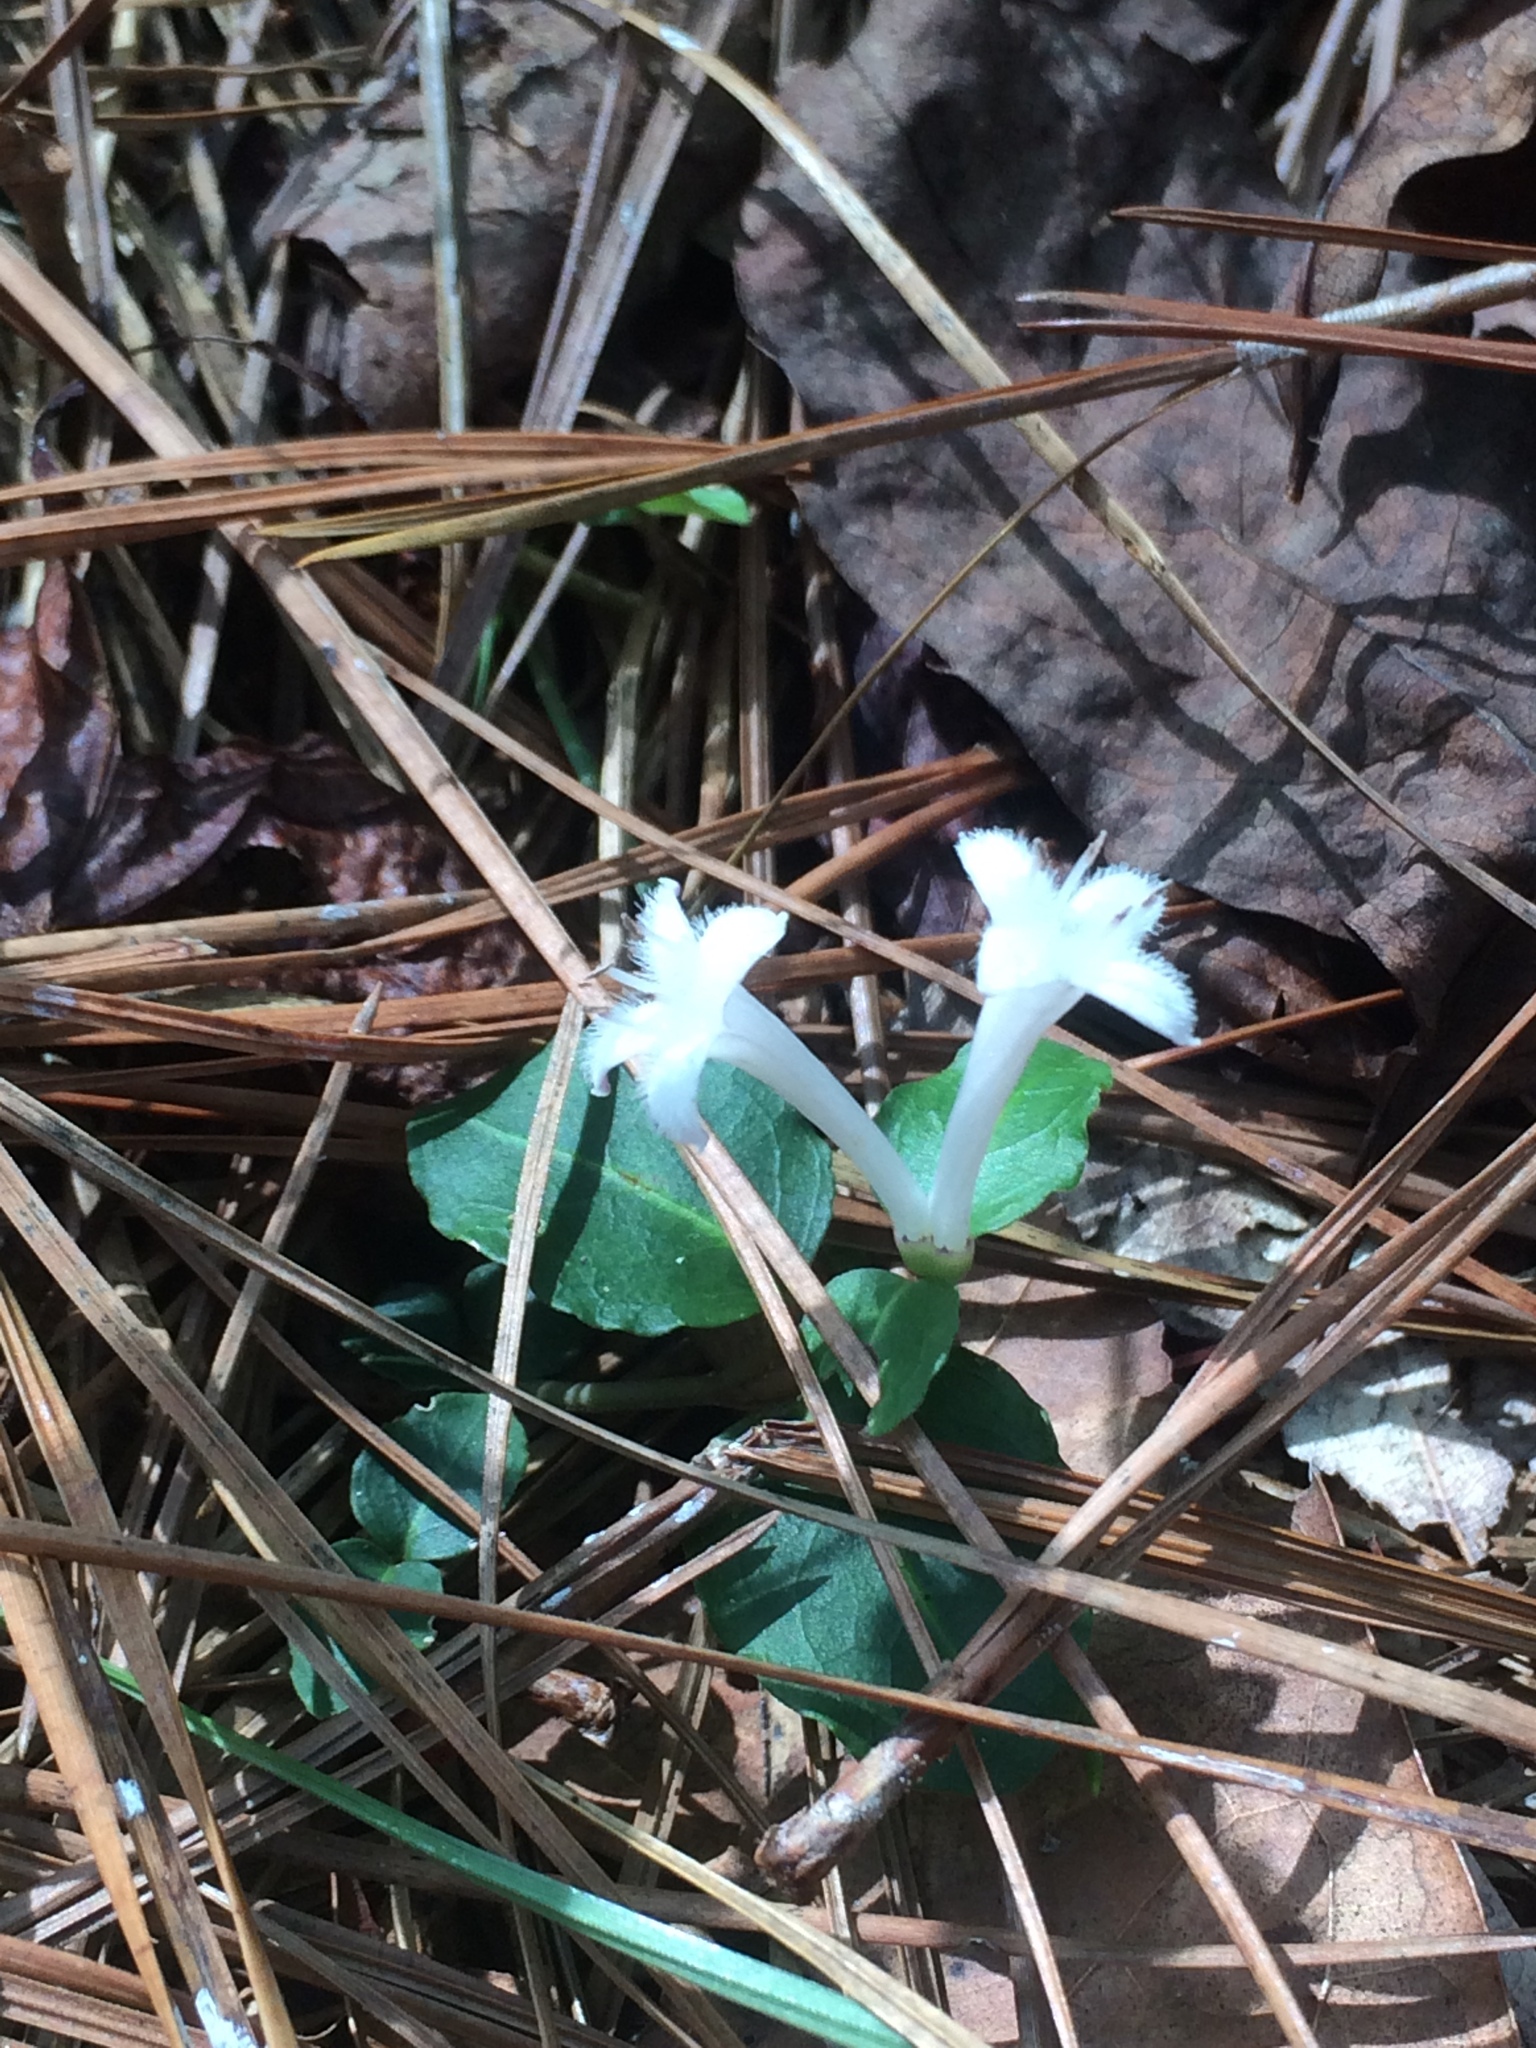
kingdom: Plantae
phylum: Tracheophyta
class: Magnoliopsida
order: Gentianales
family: Rubiaceae
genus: Mitchella
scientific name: Mitchella repens
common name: Partridge-berry
